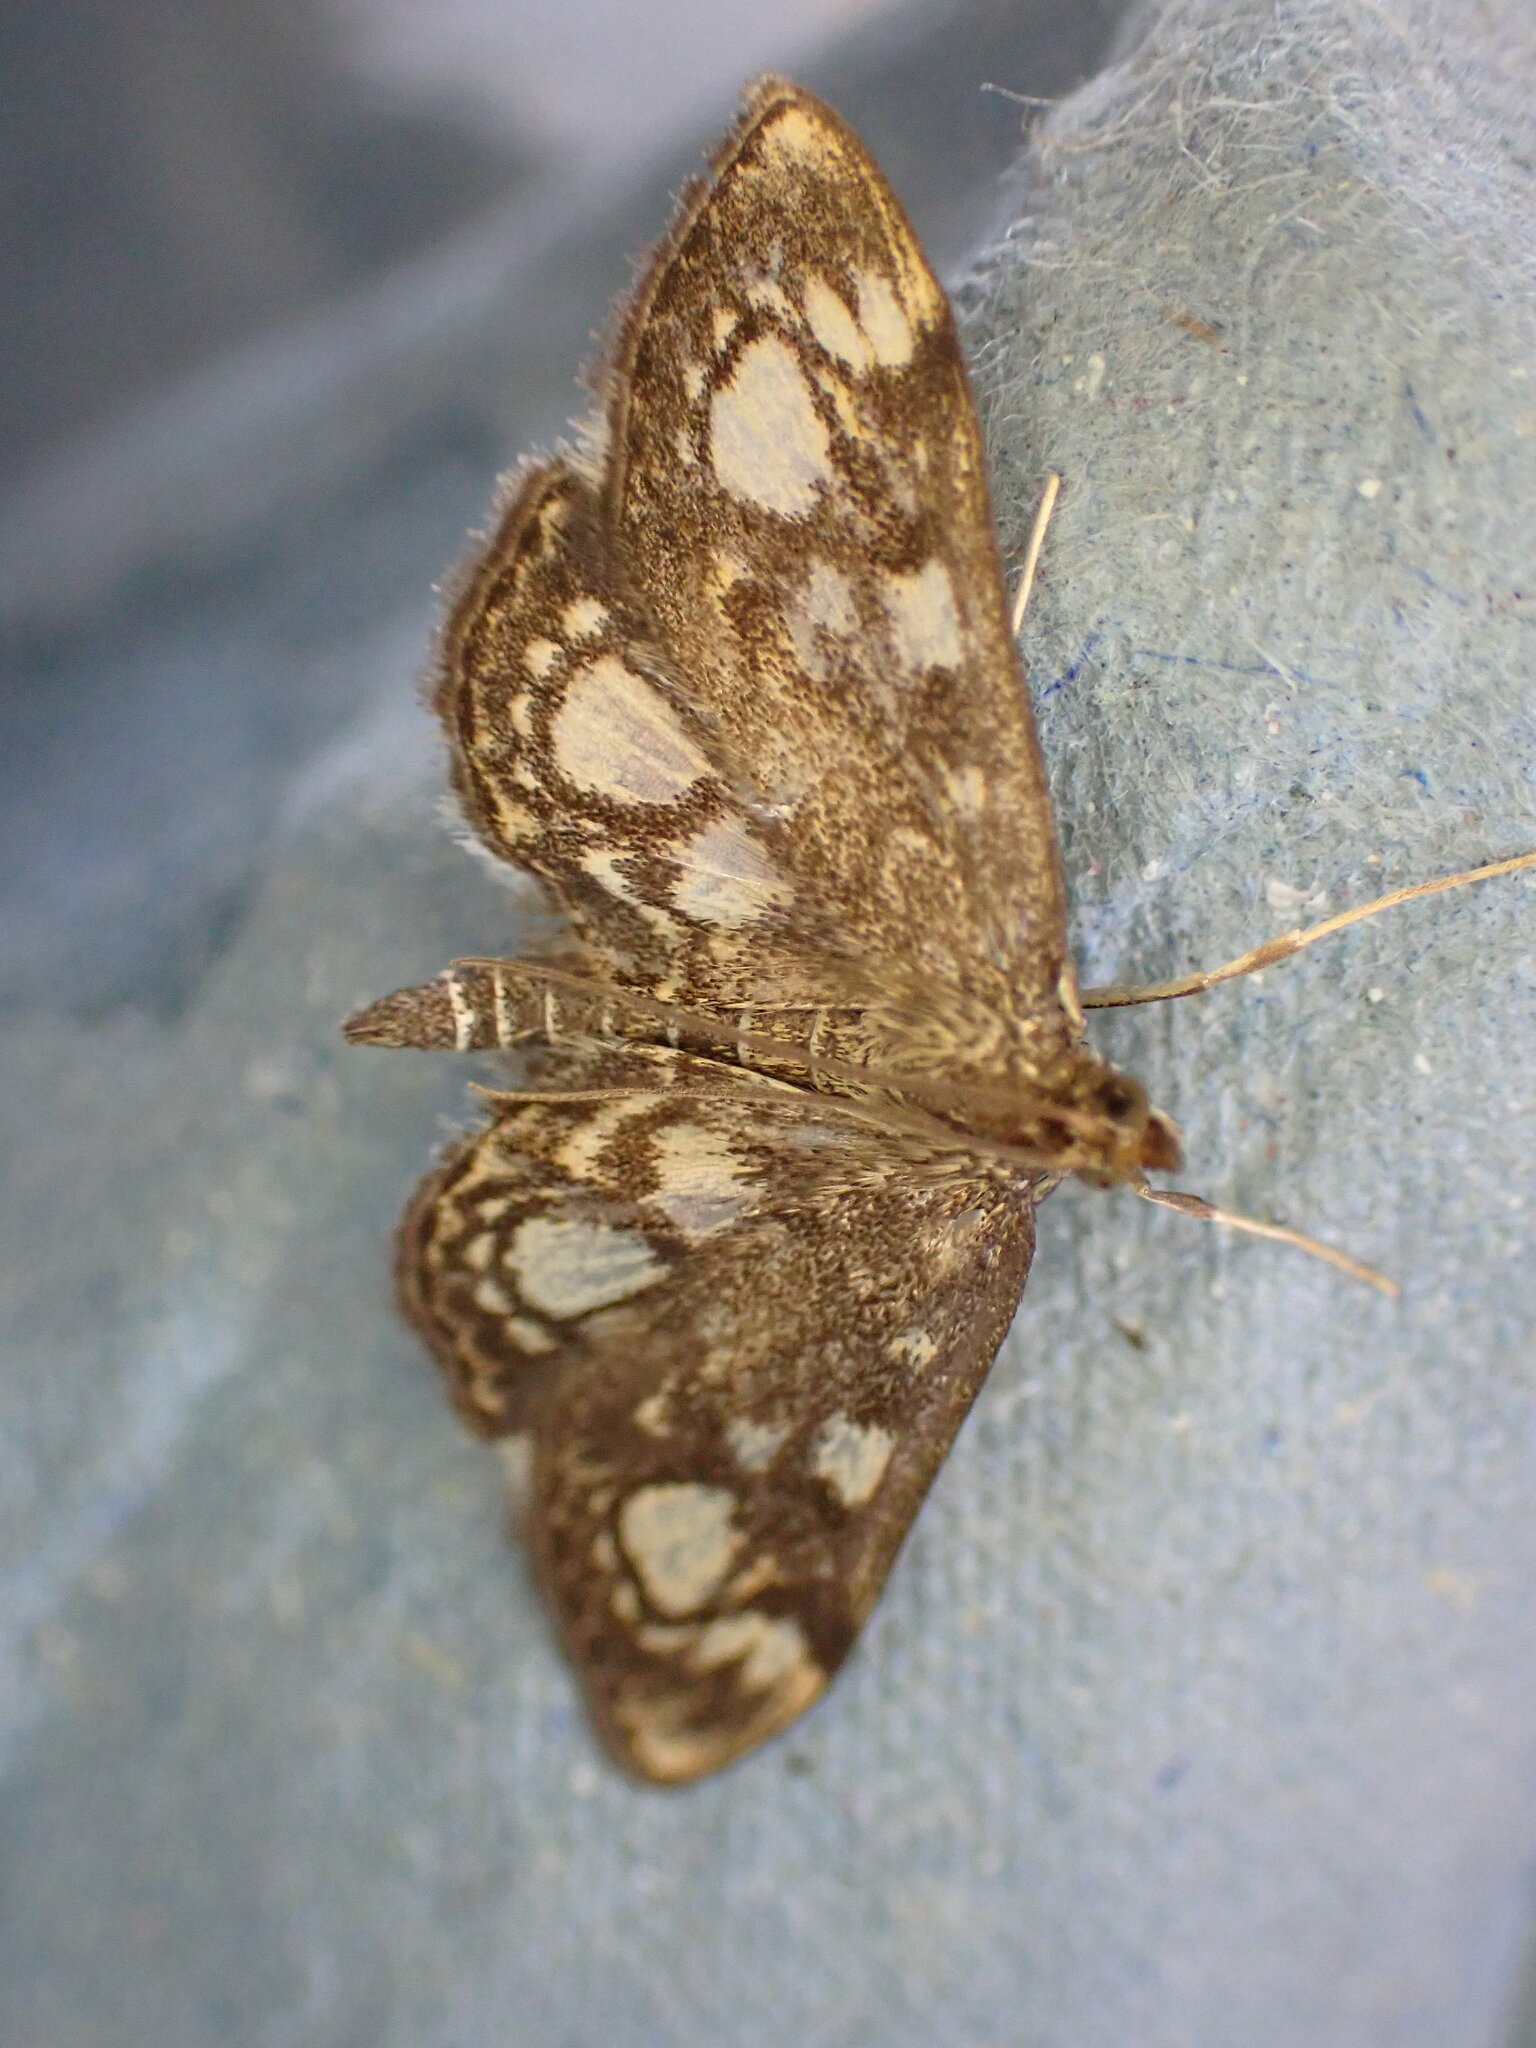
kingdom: Animalia
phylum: Arthropoda
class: Insecta
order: Lepidoptera
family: Crambidae
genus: Anania
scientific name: Anania coronata
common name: Elder pearl
